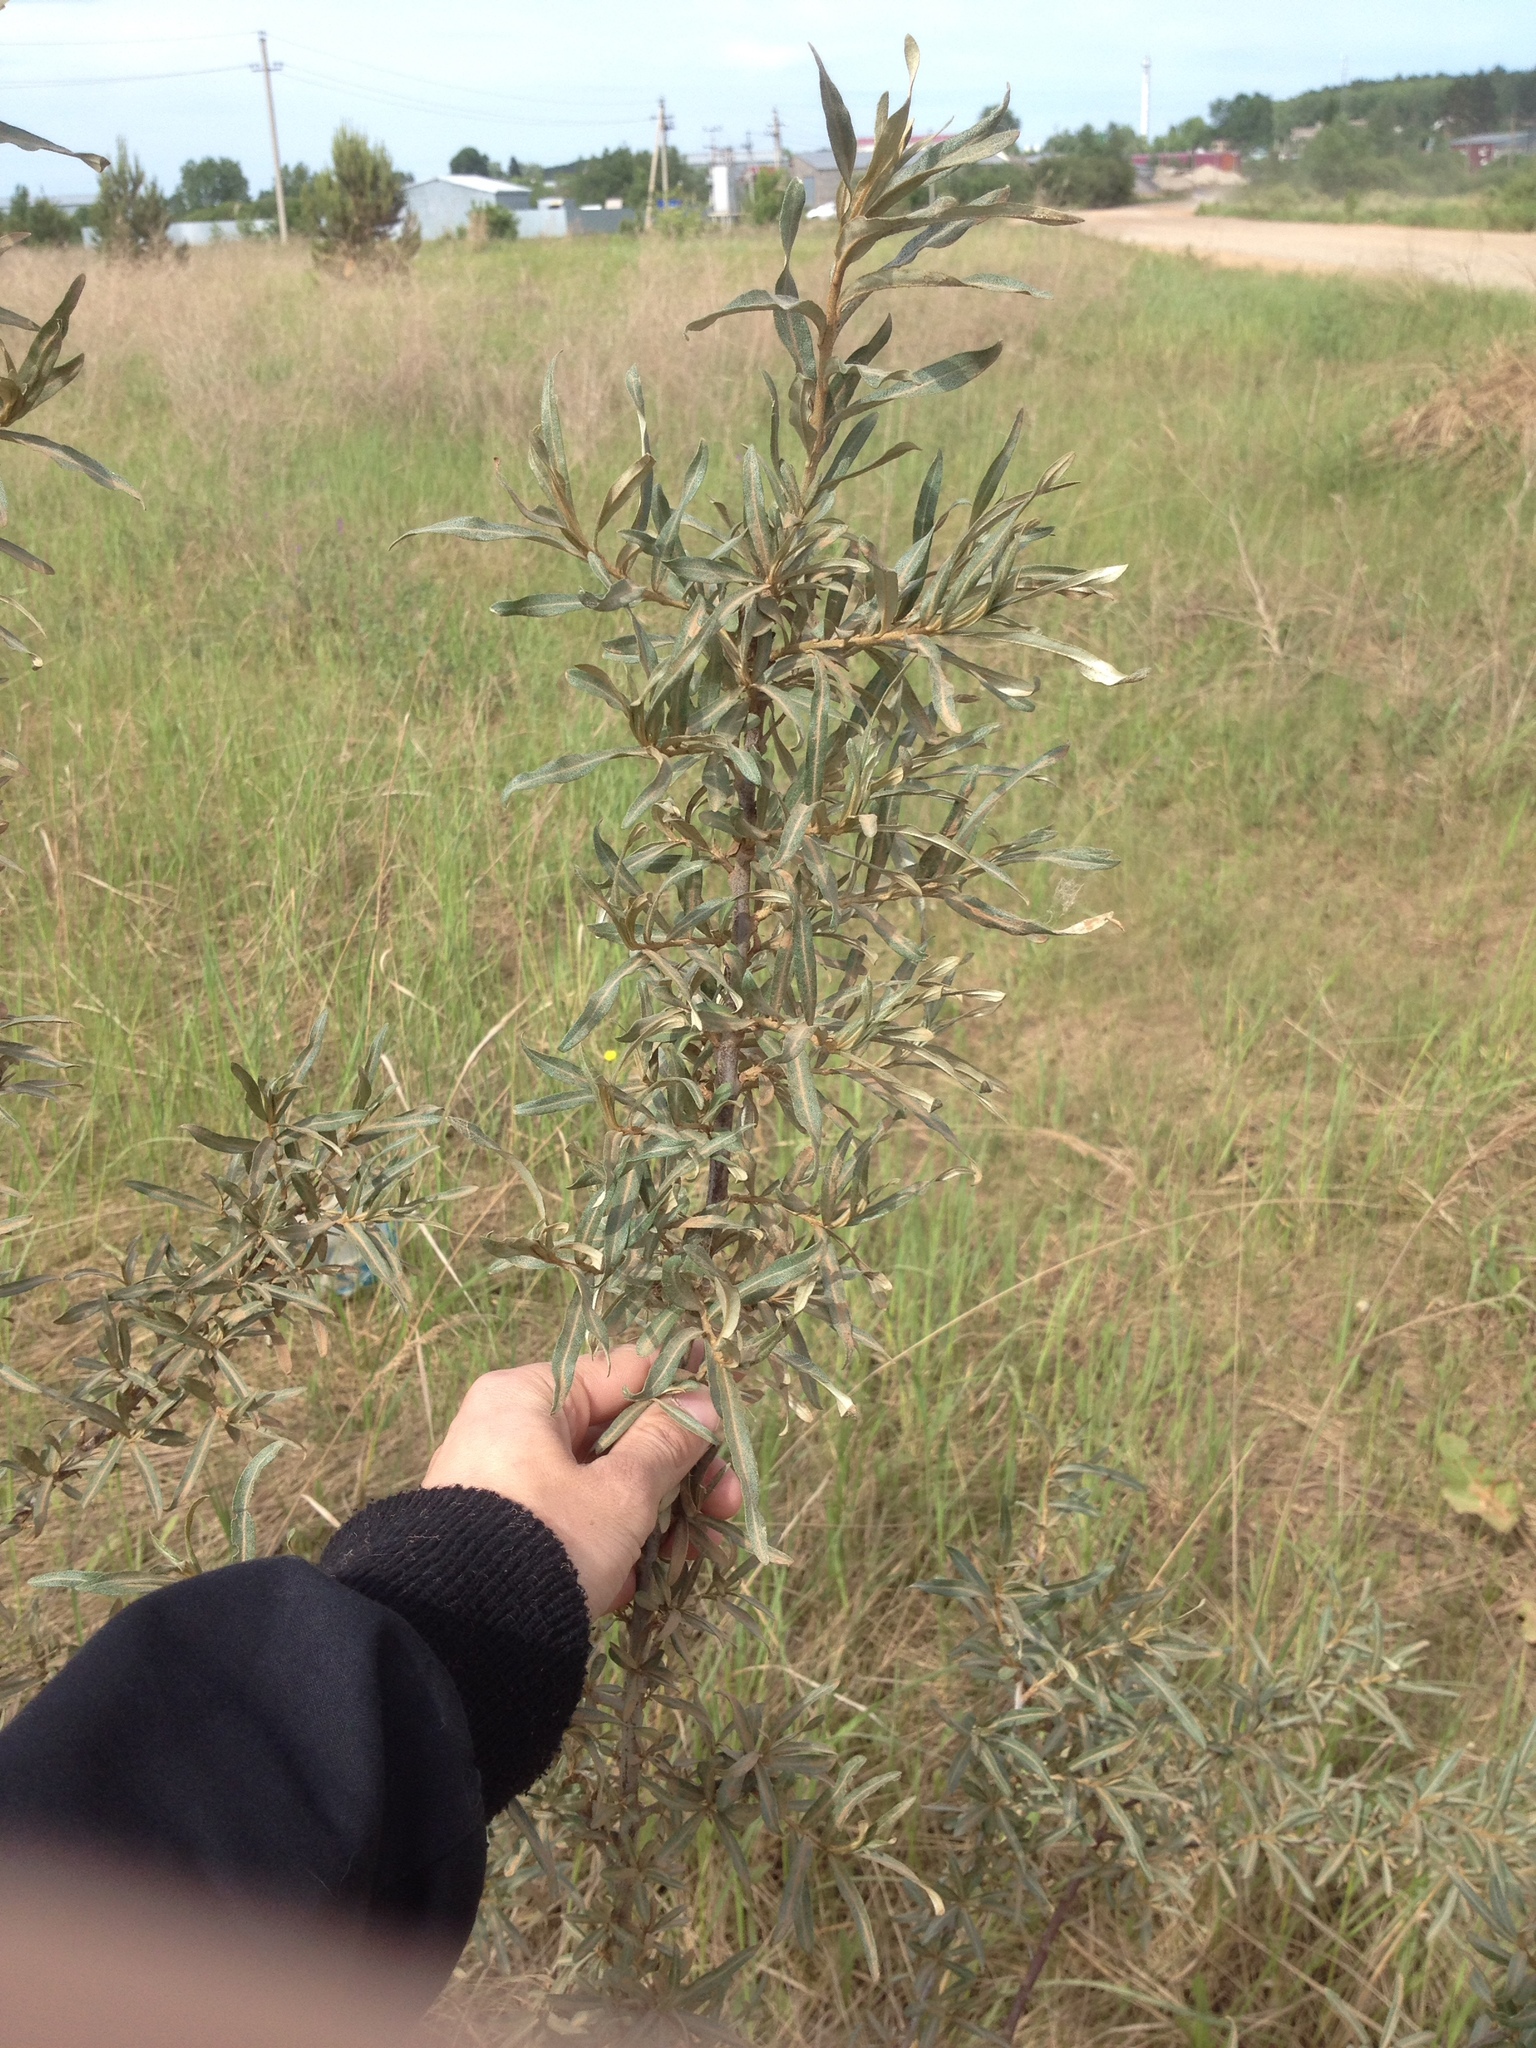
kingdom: Plantae
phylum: Tracheophyta
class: Magnoliopsida
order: Rosales
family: Elaeagnaceae
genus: Hippophae
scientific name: Hippophae rhamnoides
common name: Sea-buckthorn
